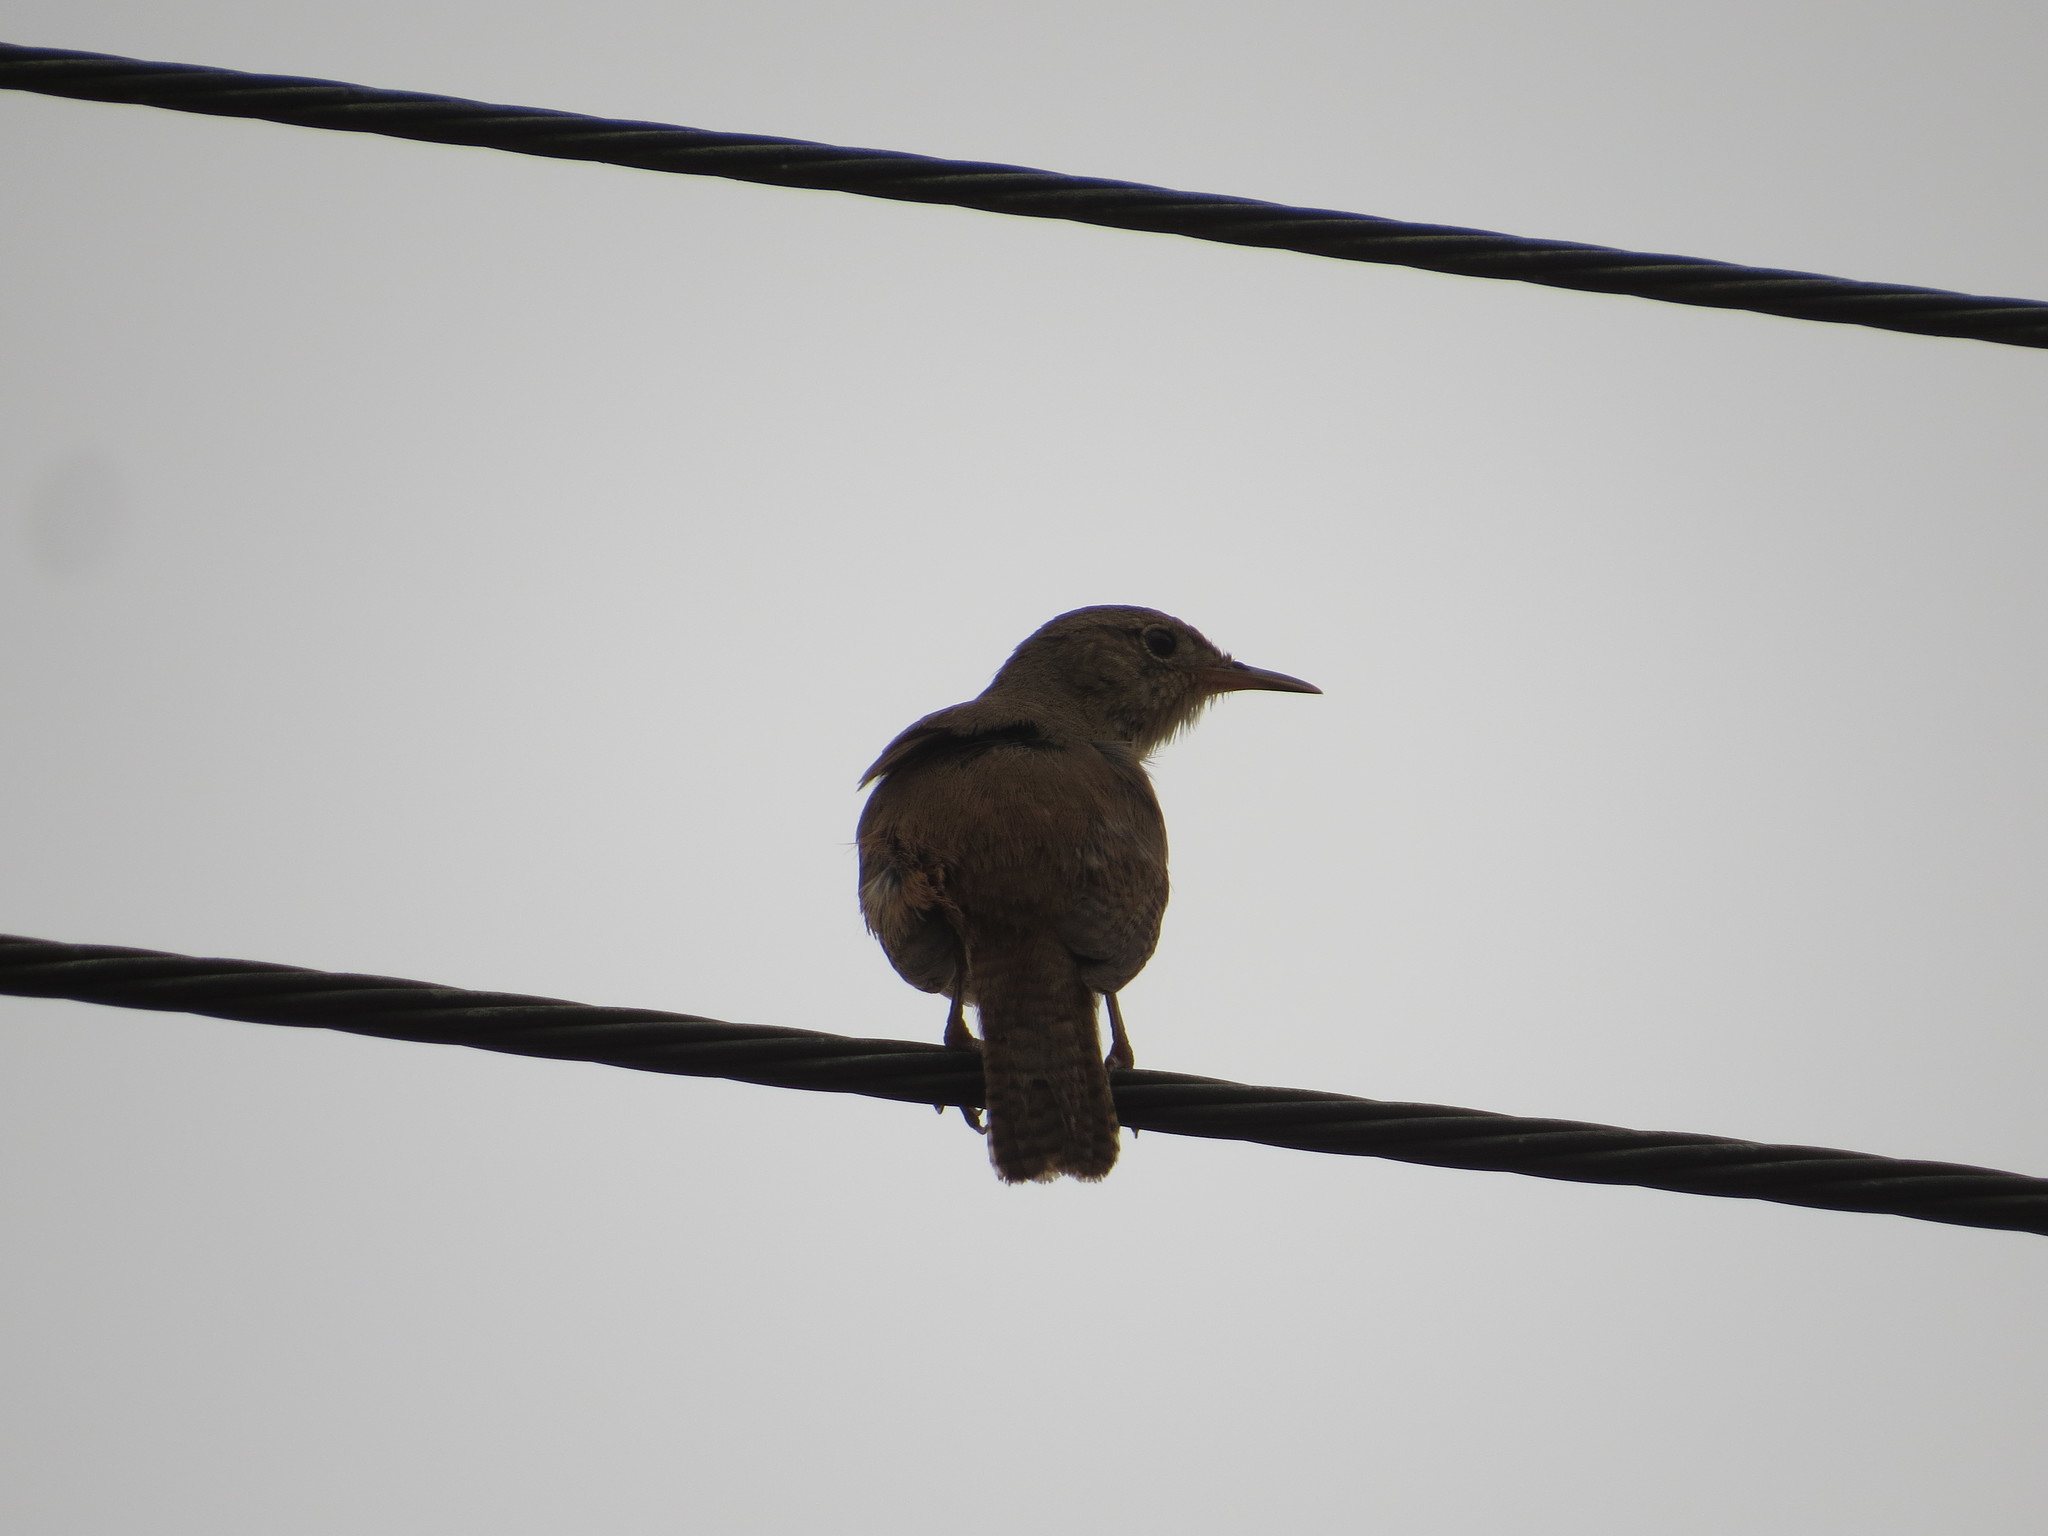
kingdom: Animalia
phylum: Chordata
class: Aves
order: Passeriformes
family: Troglodytidae
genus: Troglodytes
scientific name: Troglodytes aedon
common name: House wren
